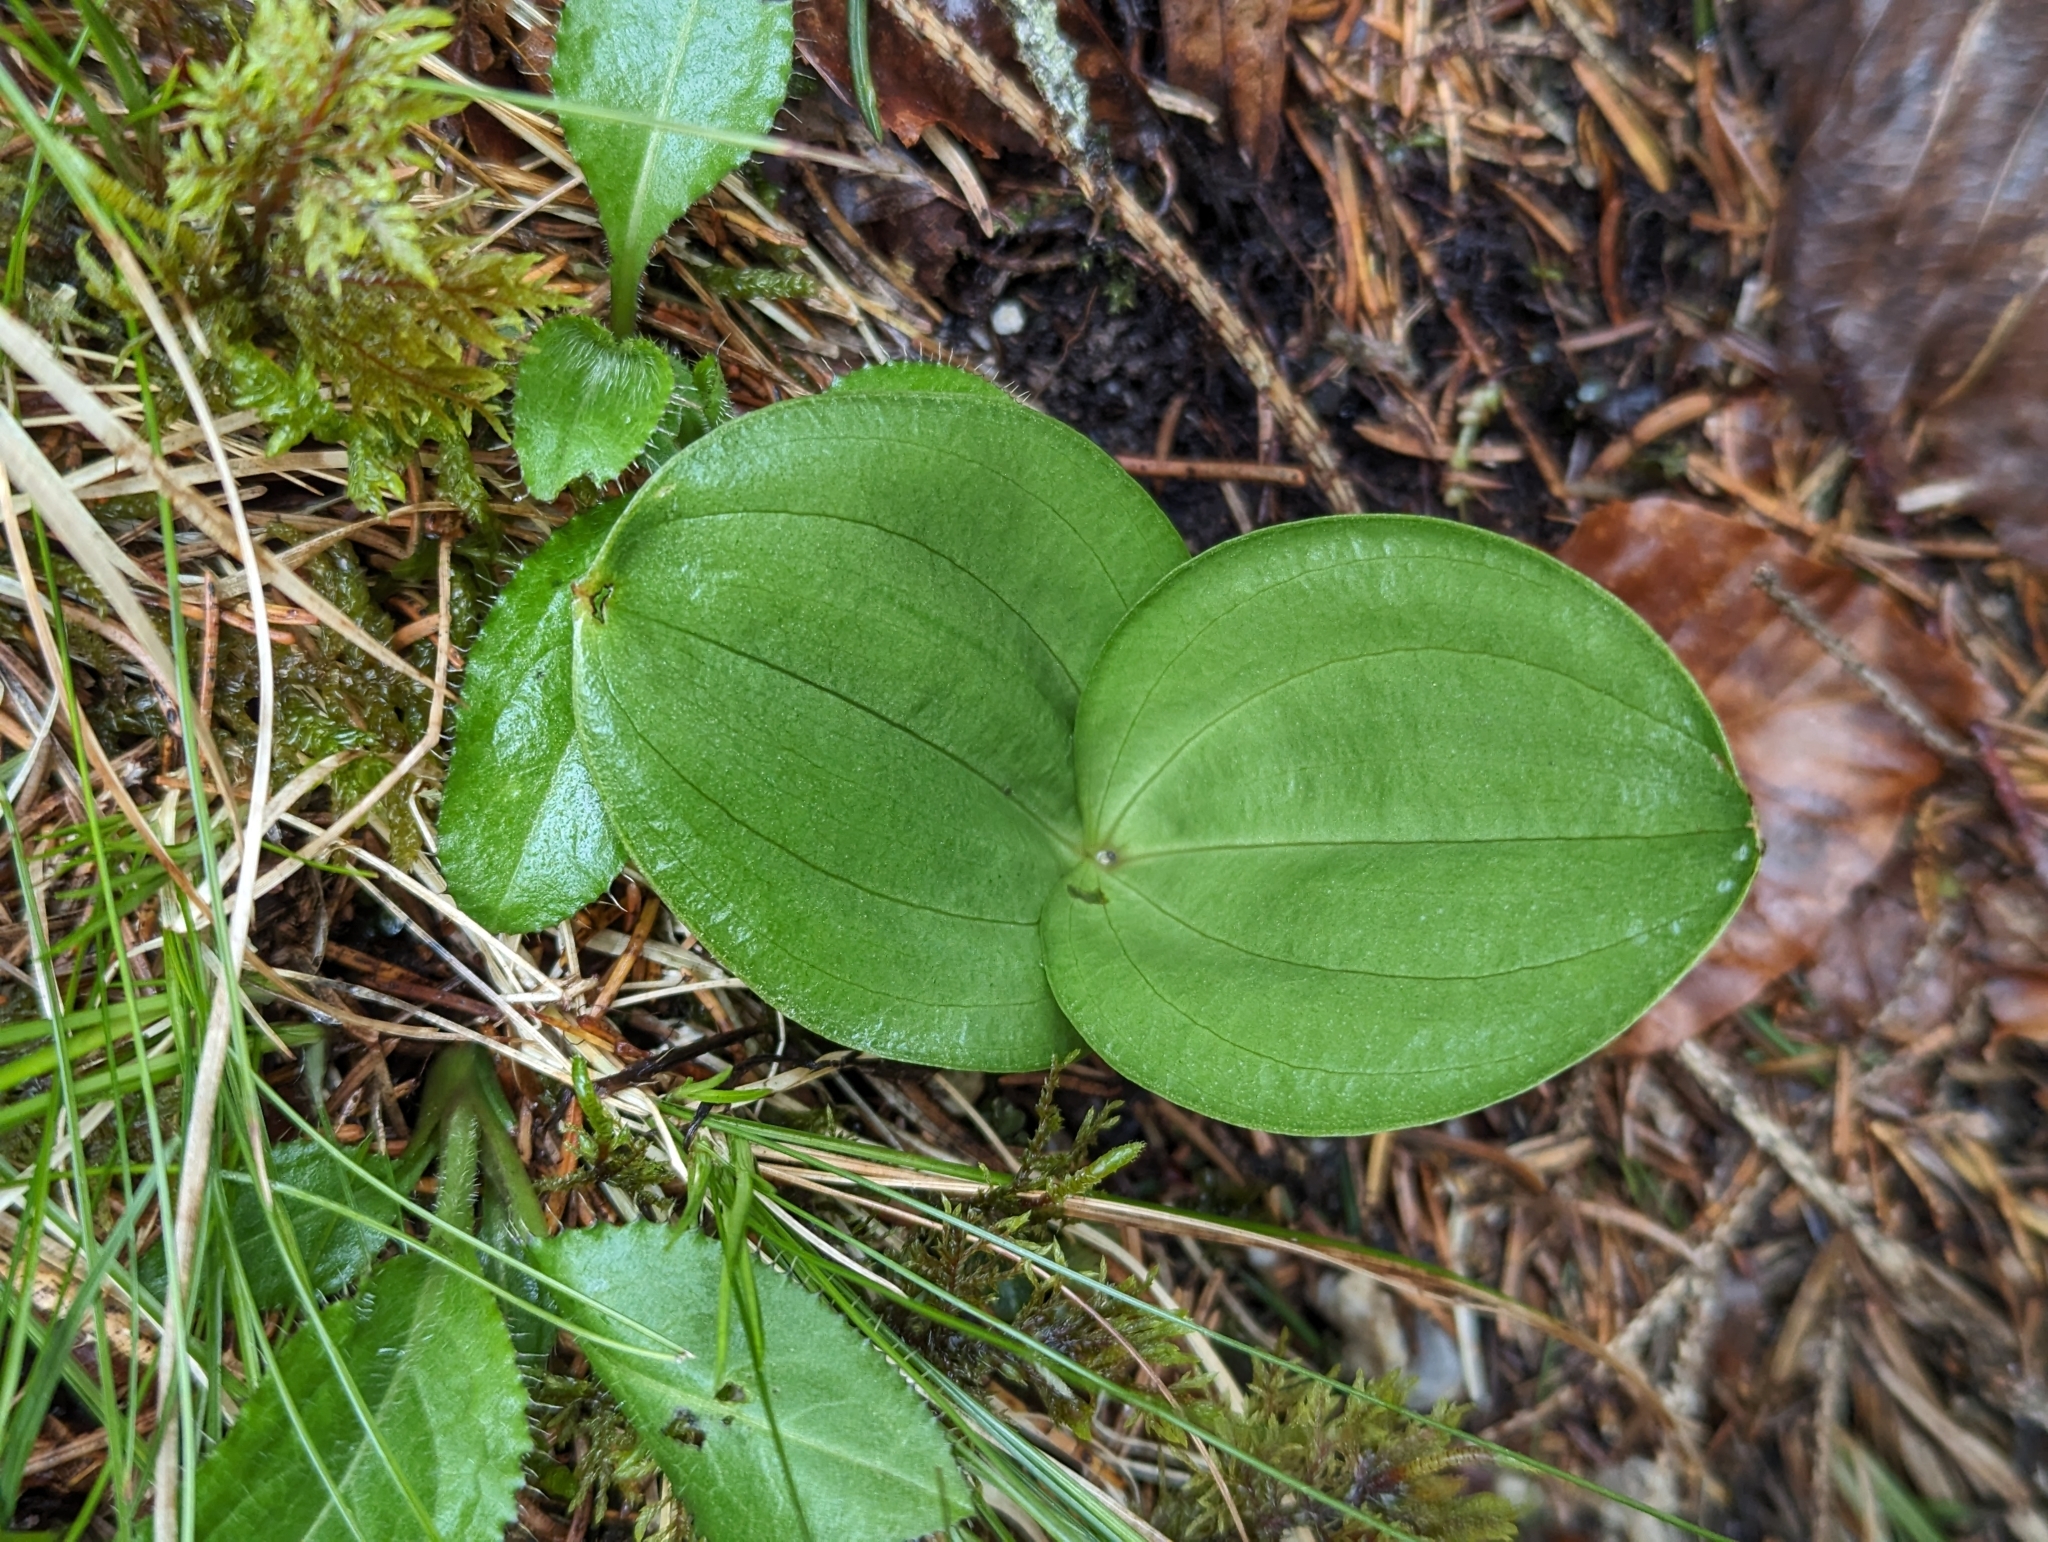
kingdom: Plantae
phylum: Tracheophyta
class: Liliopsida
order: Asparagales
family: Orchidaceae
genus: Neottia
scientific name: Neottia ovata
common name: Common twayblade
